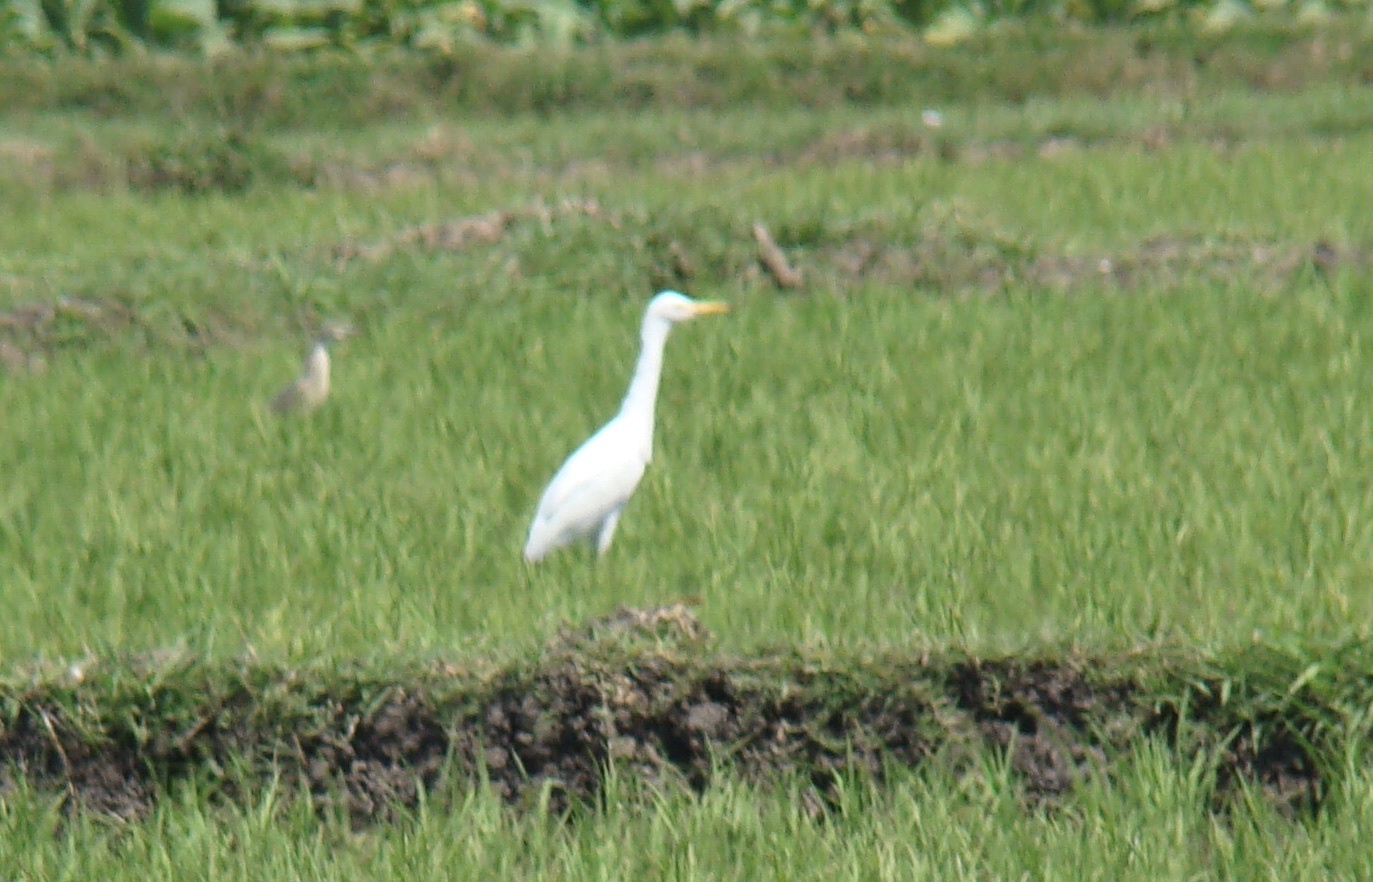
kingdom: Animalia
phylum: Chordata
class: Aves
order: Pelecaniformes
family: Ardeidae
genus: Bubulcus
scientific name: Bubulcus coromandus
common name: Eastern cattle egret
